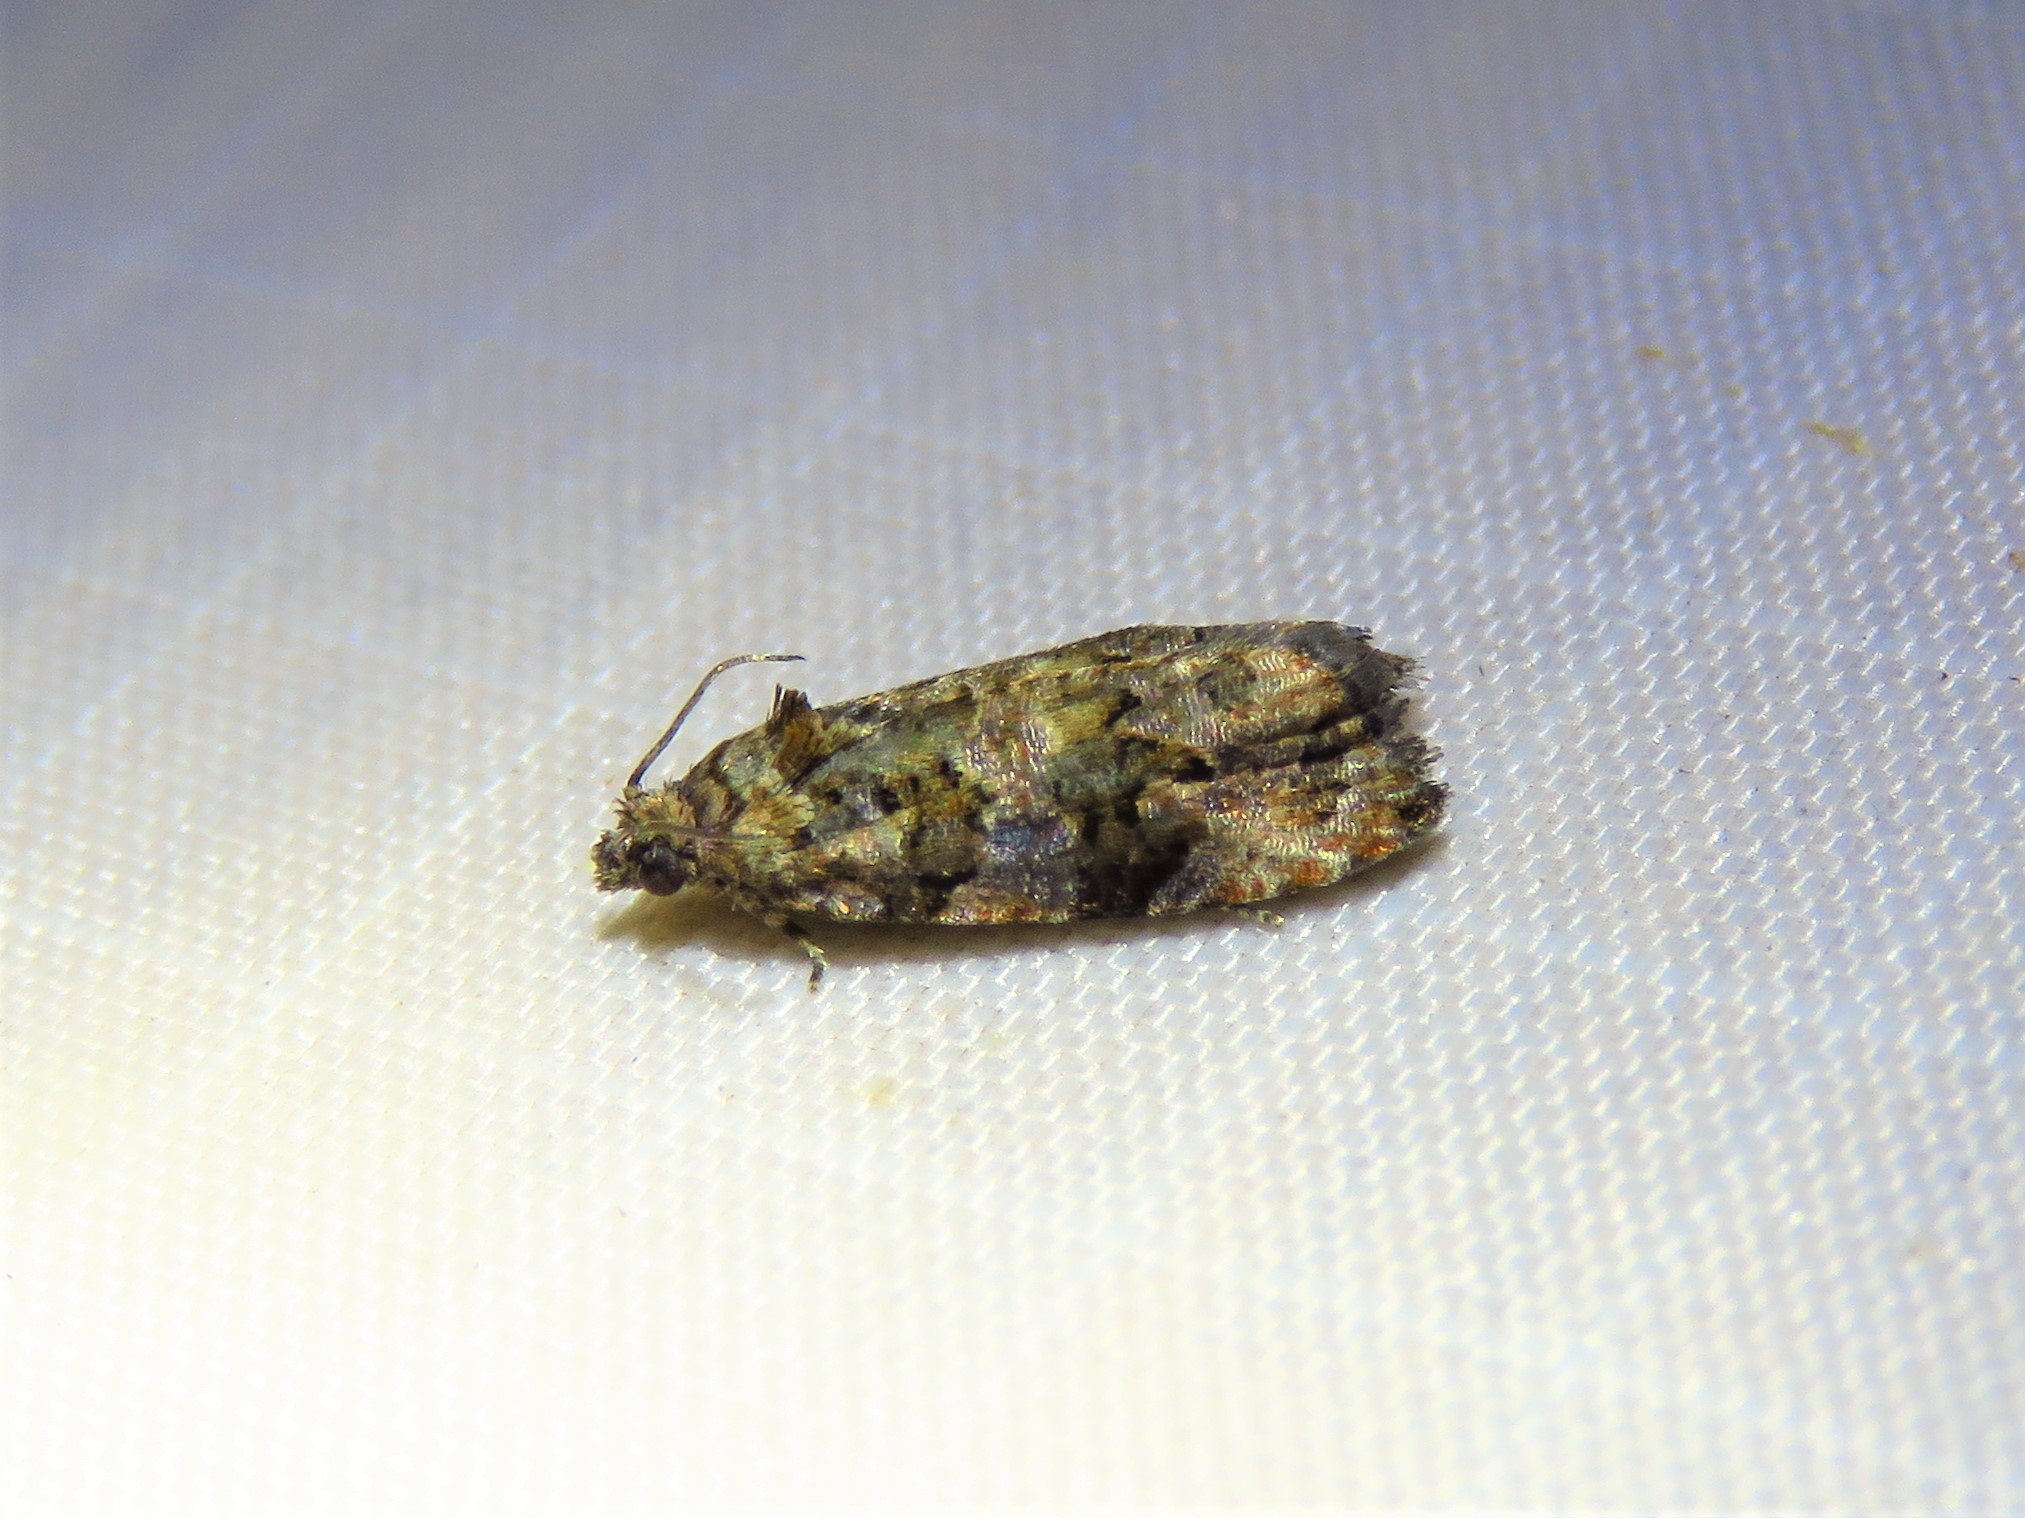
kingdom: Animalia
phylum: Arthropoda
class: Insecta
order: Lepidoptera
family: Tortricidae
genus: Endothenia
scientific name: Endothenia hebesana
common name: Verbena bud moth
